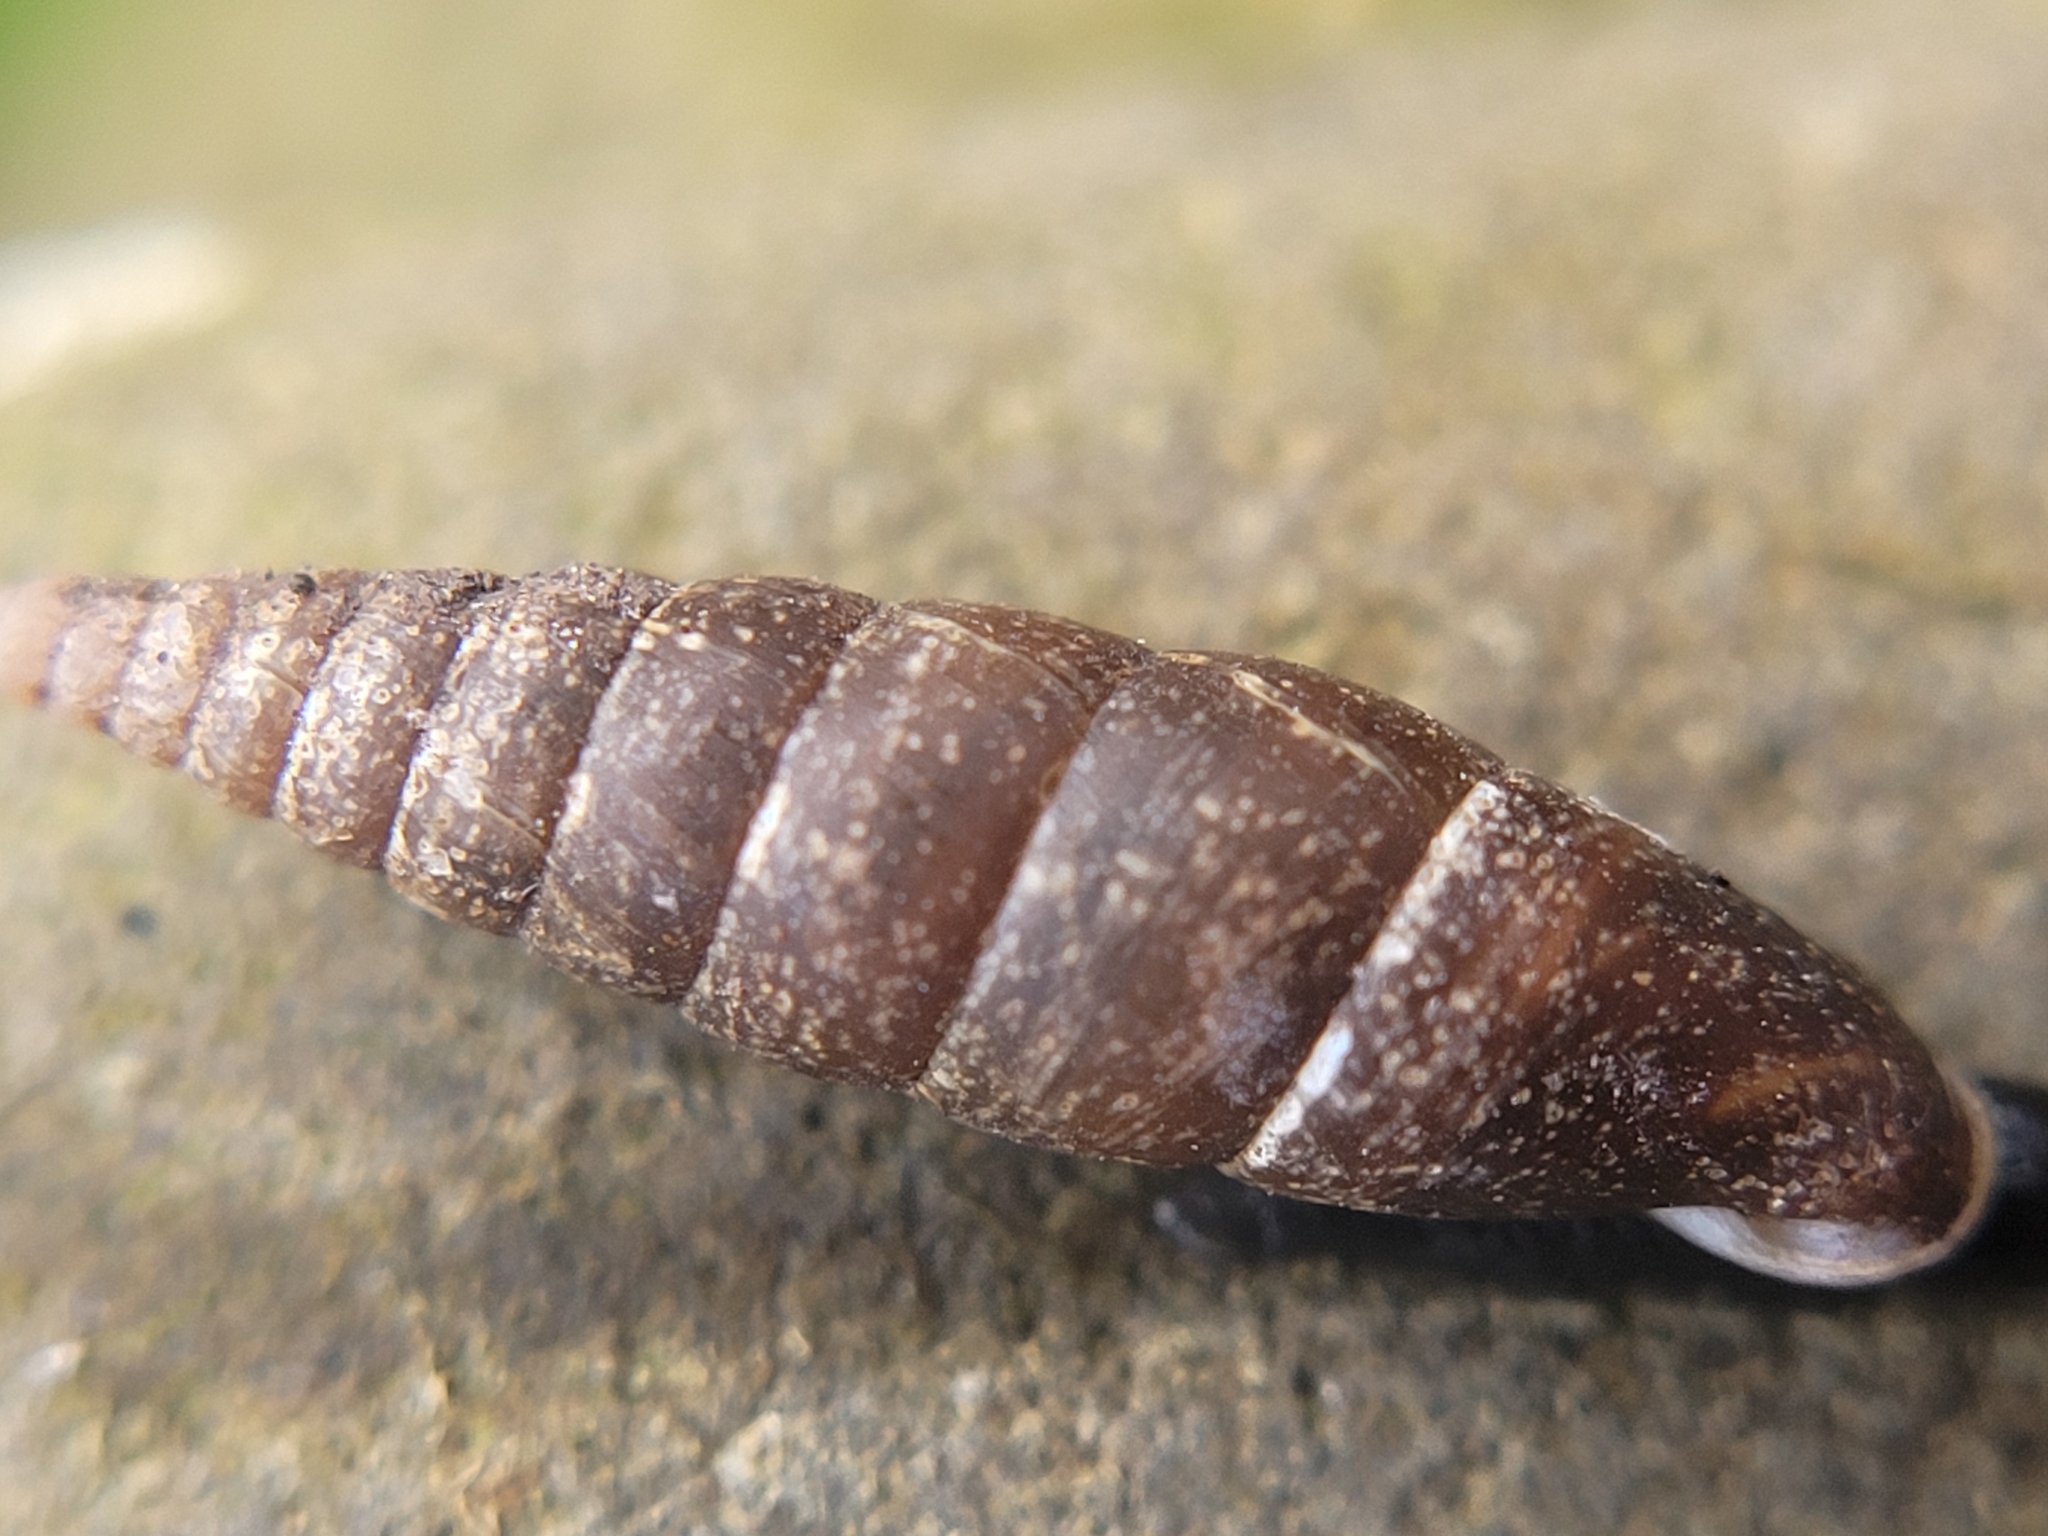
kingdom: Animalia
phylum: Mollusca
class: Gastropoda
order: Stylommatophora
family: Clausiliidae
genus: Cochlodina
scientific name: Cochlodina laminata
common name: Plaited door snail
